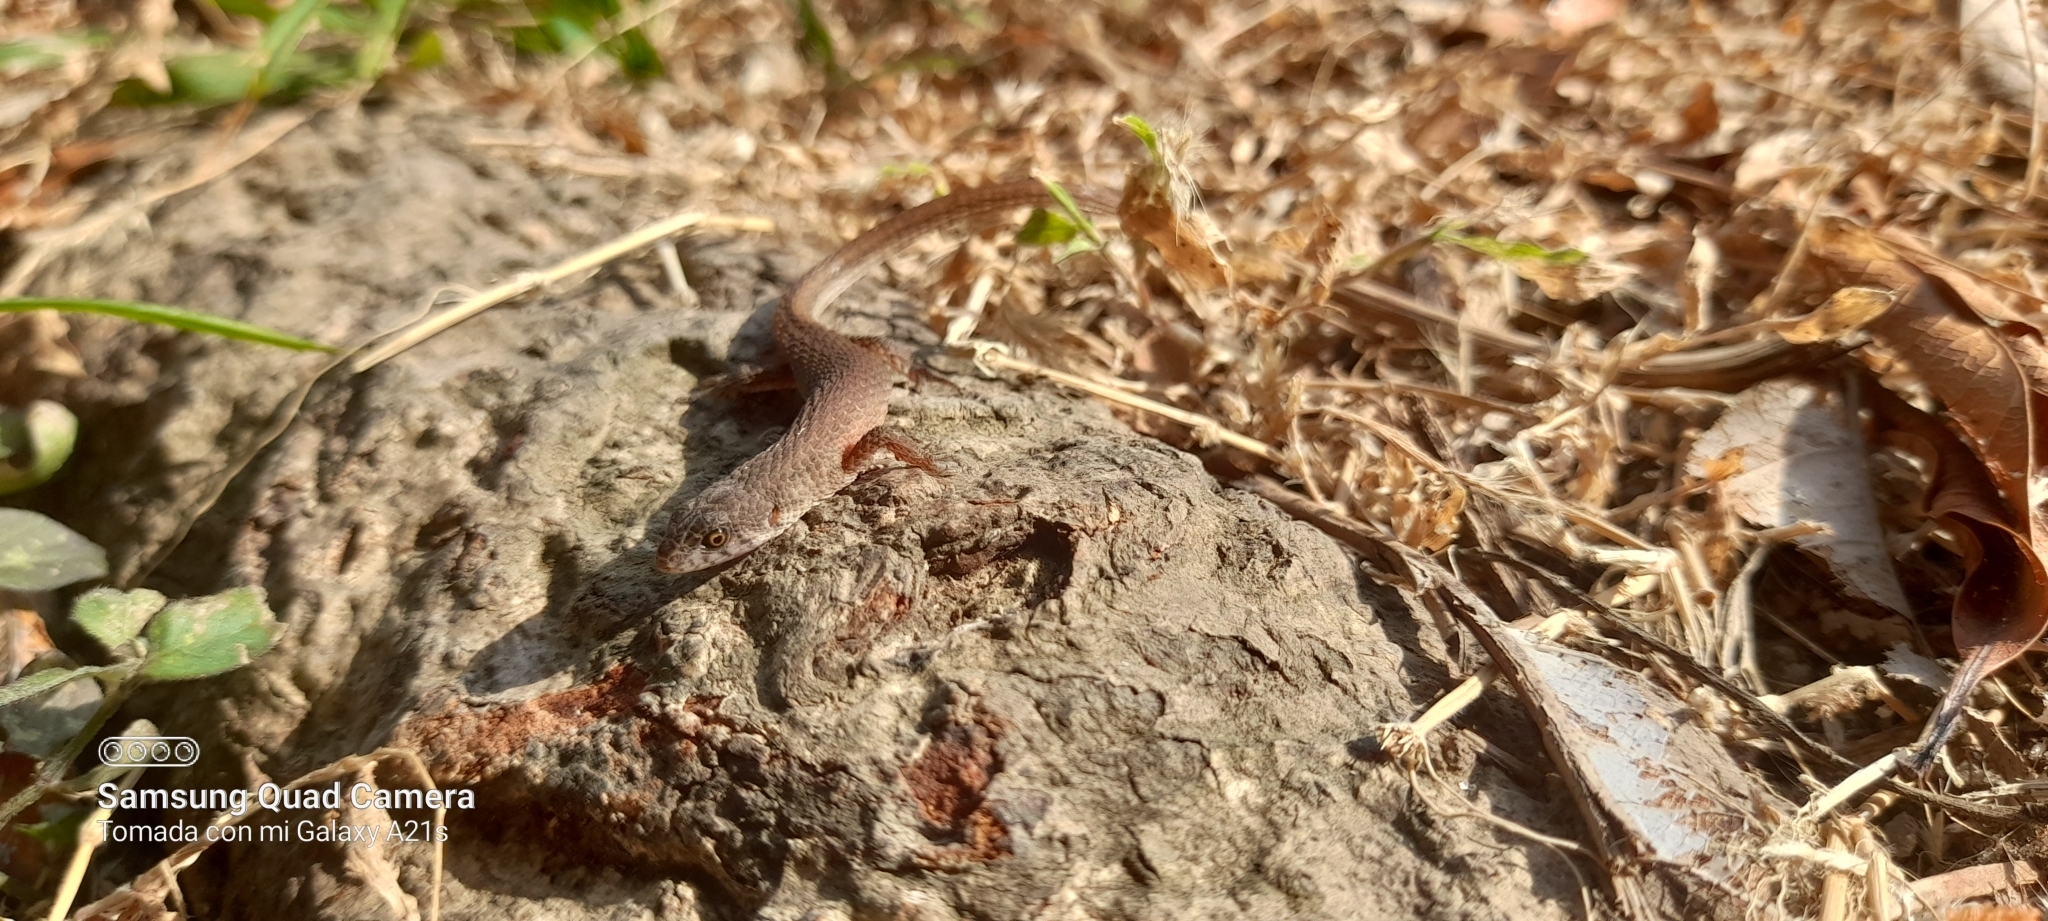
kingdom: Animalia
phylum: Chordata
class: Squamata
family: Gymnophthalmidae
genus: Loxopholis
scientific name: Loxopholis rugiceps
